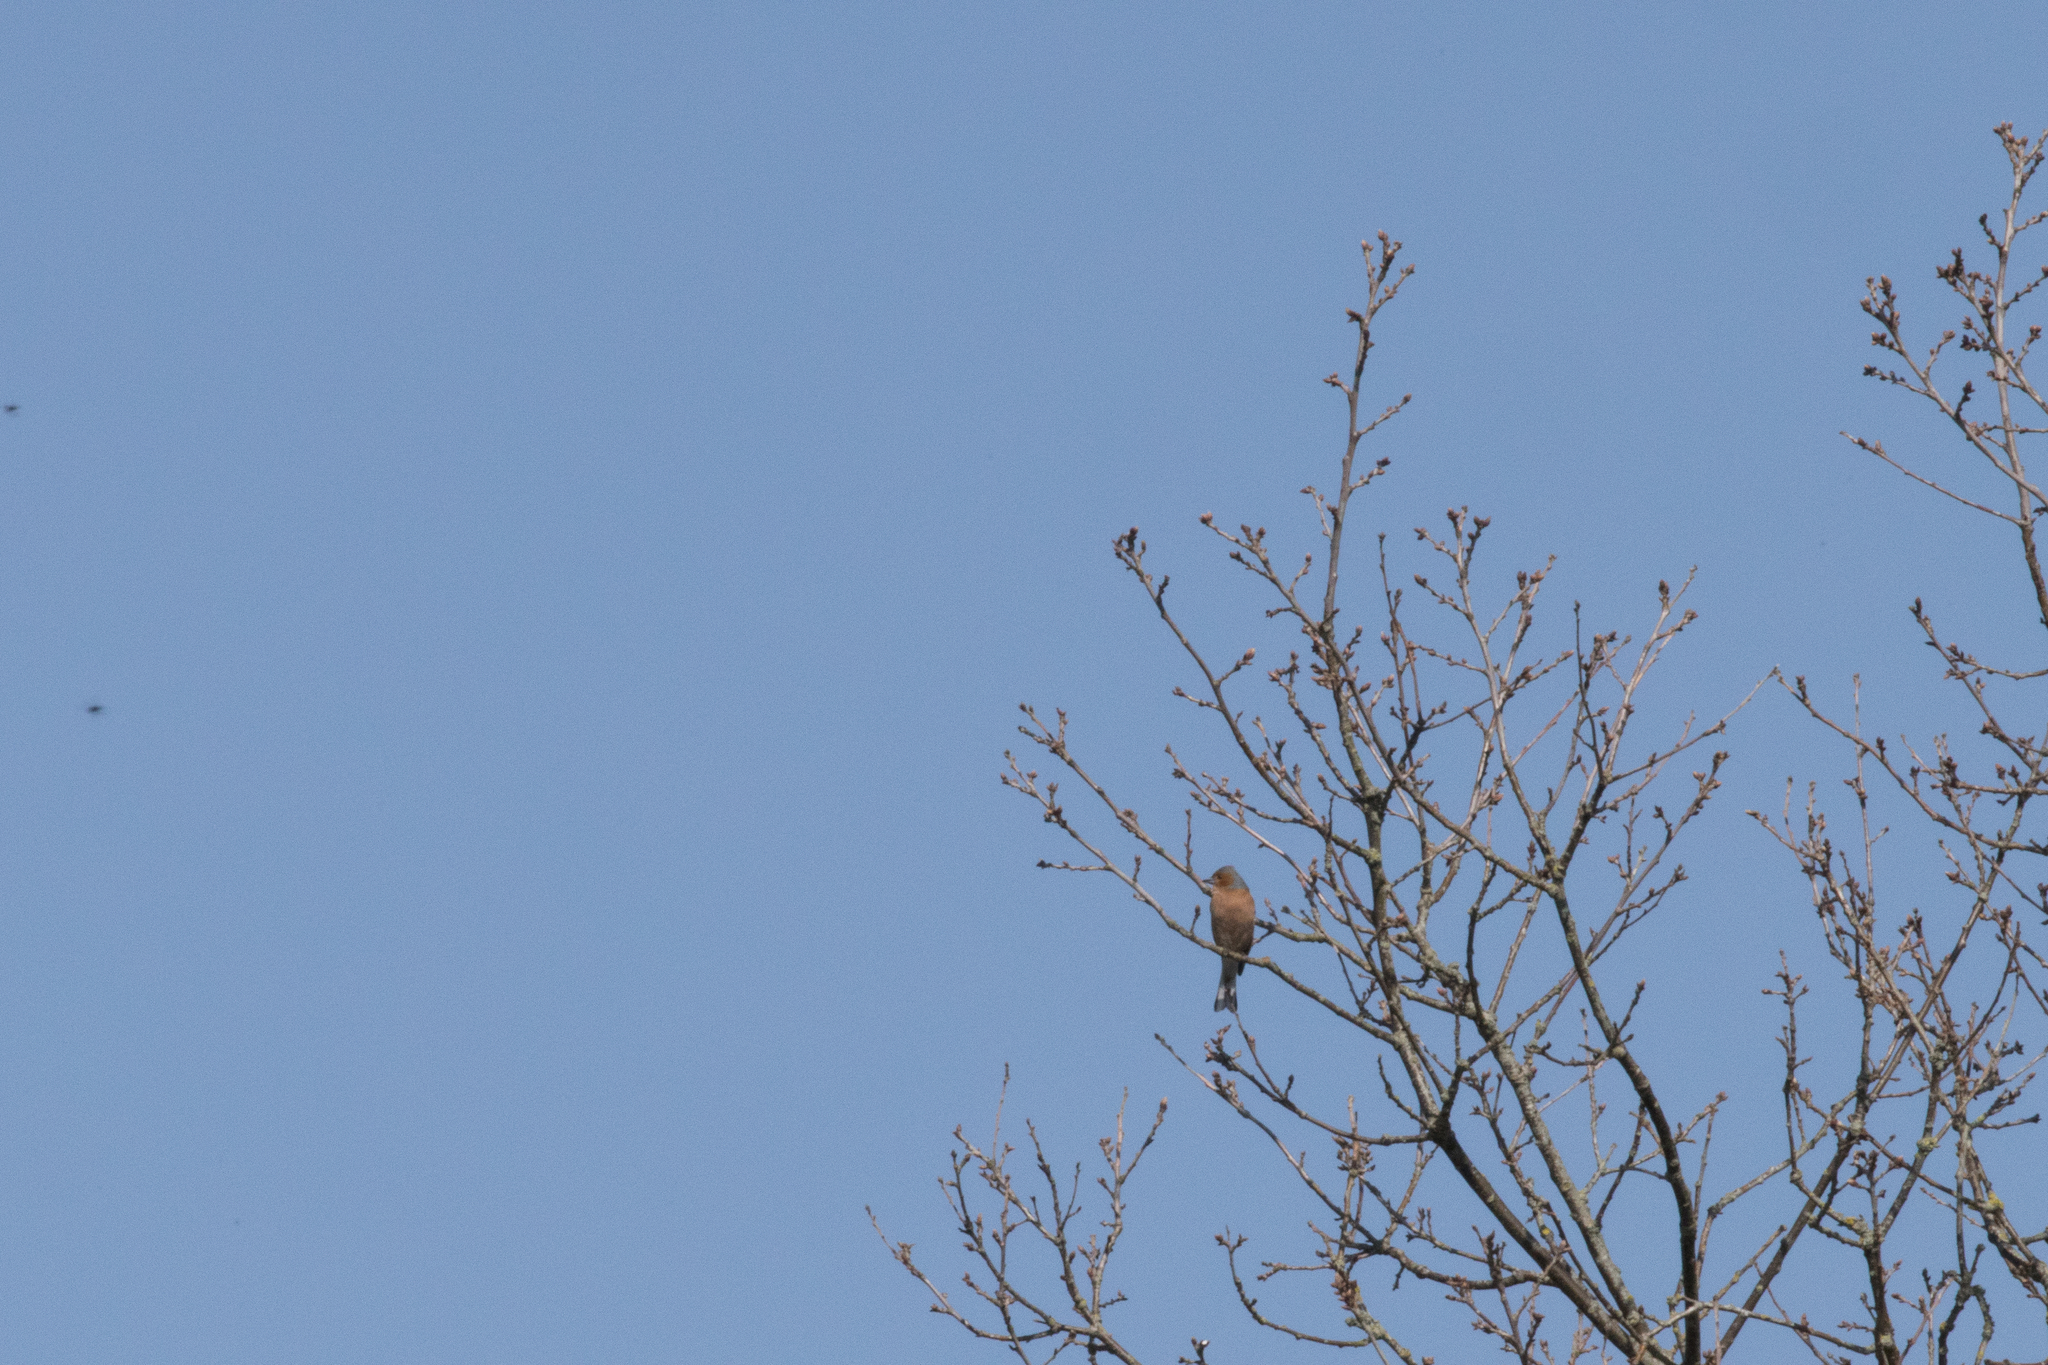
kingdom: Animalia
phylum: Chordata
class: Aves
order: Passeriformes
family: Fringillidae
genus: Fringilla
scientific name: Fringilla coelebs
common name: Common chaffinch
